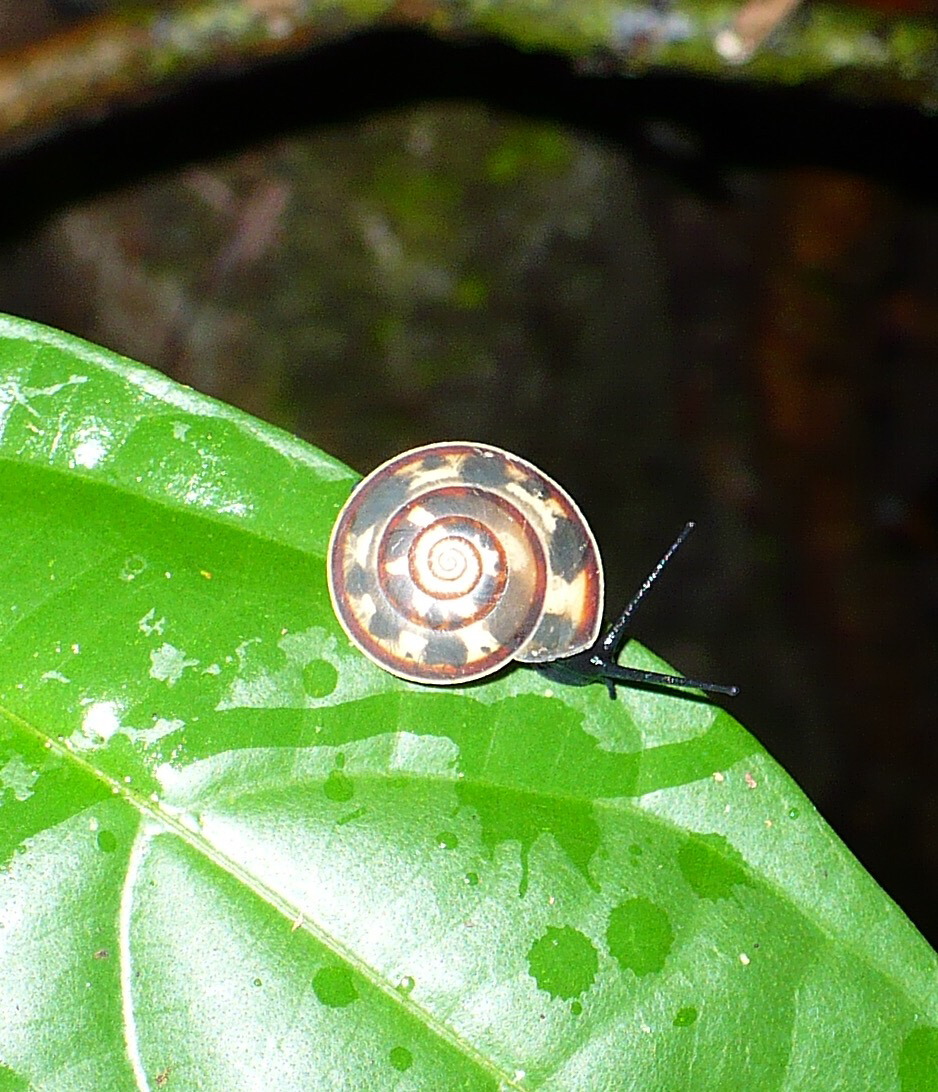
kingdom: Animalia
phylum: Mollusca
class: Gastropoda
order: Stylommatophora
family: Trochomorphidae
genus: Videna
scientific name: Videna metcalfii
